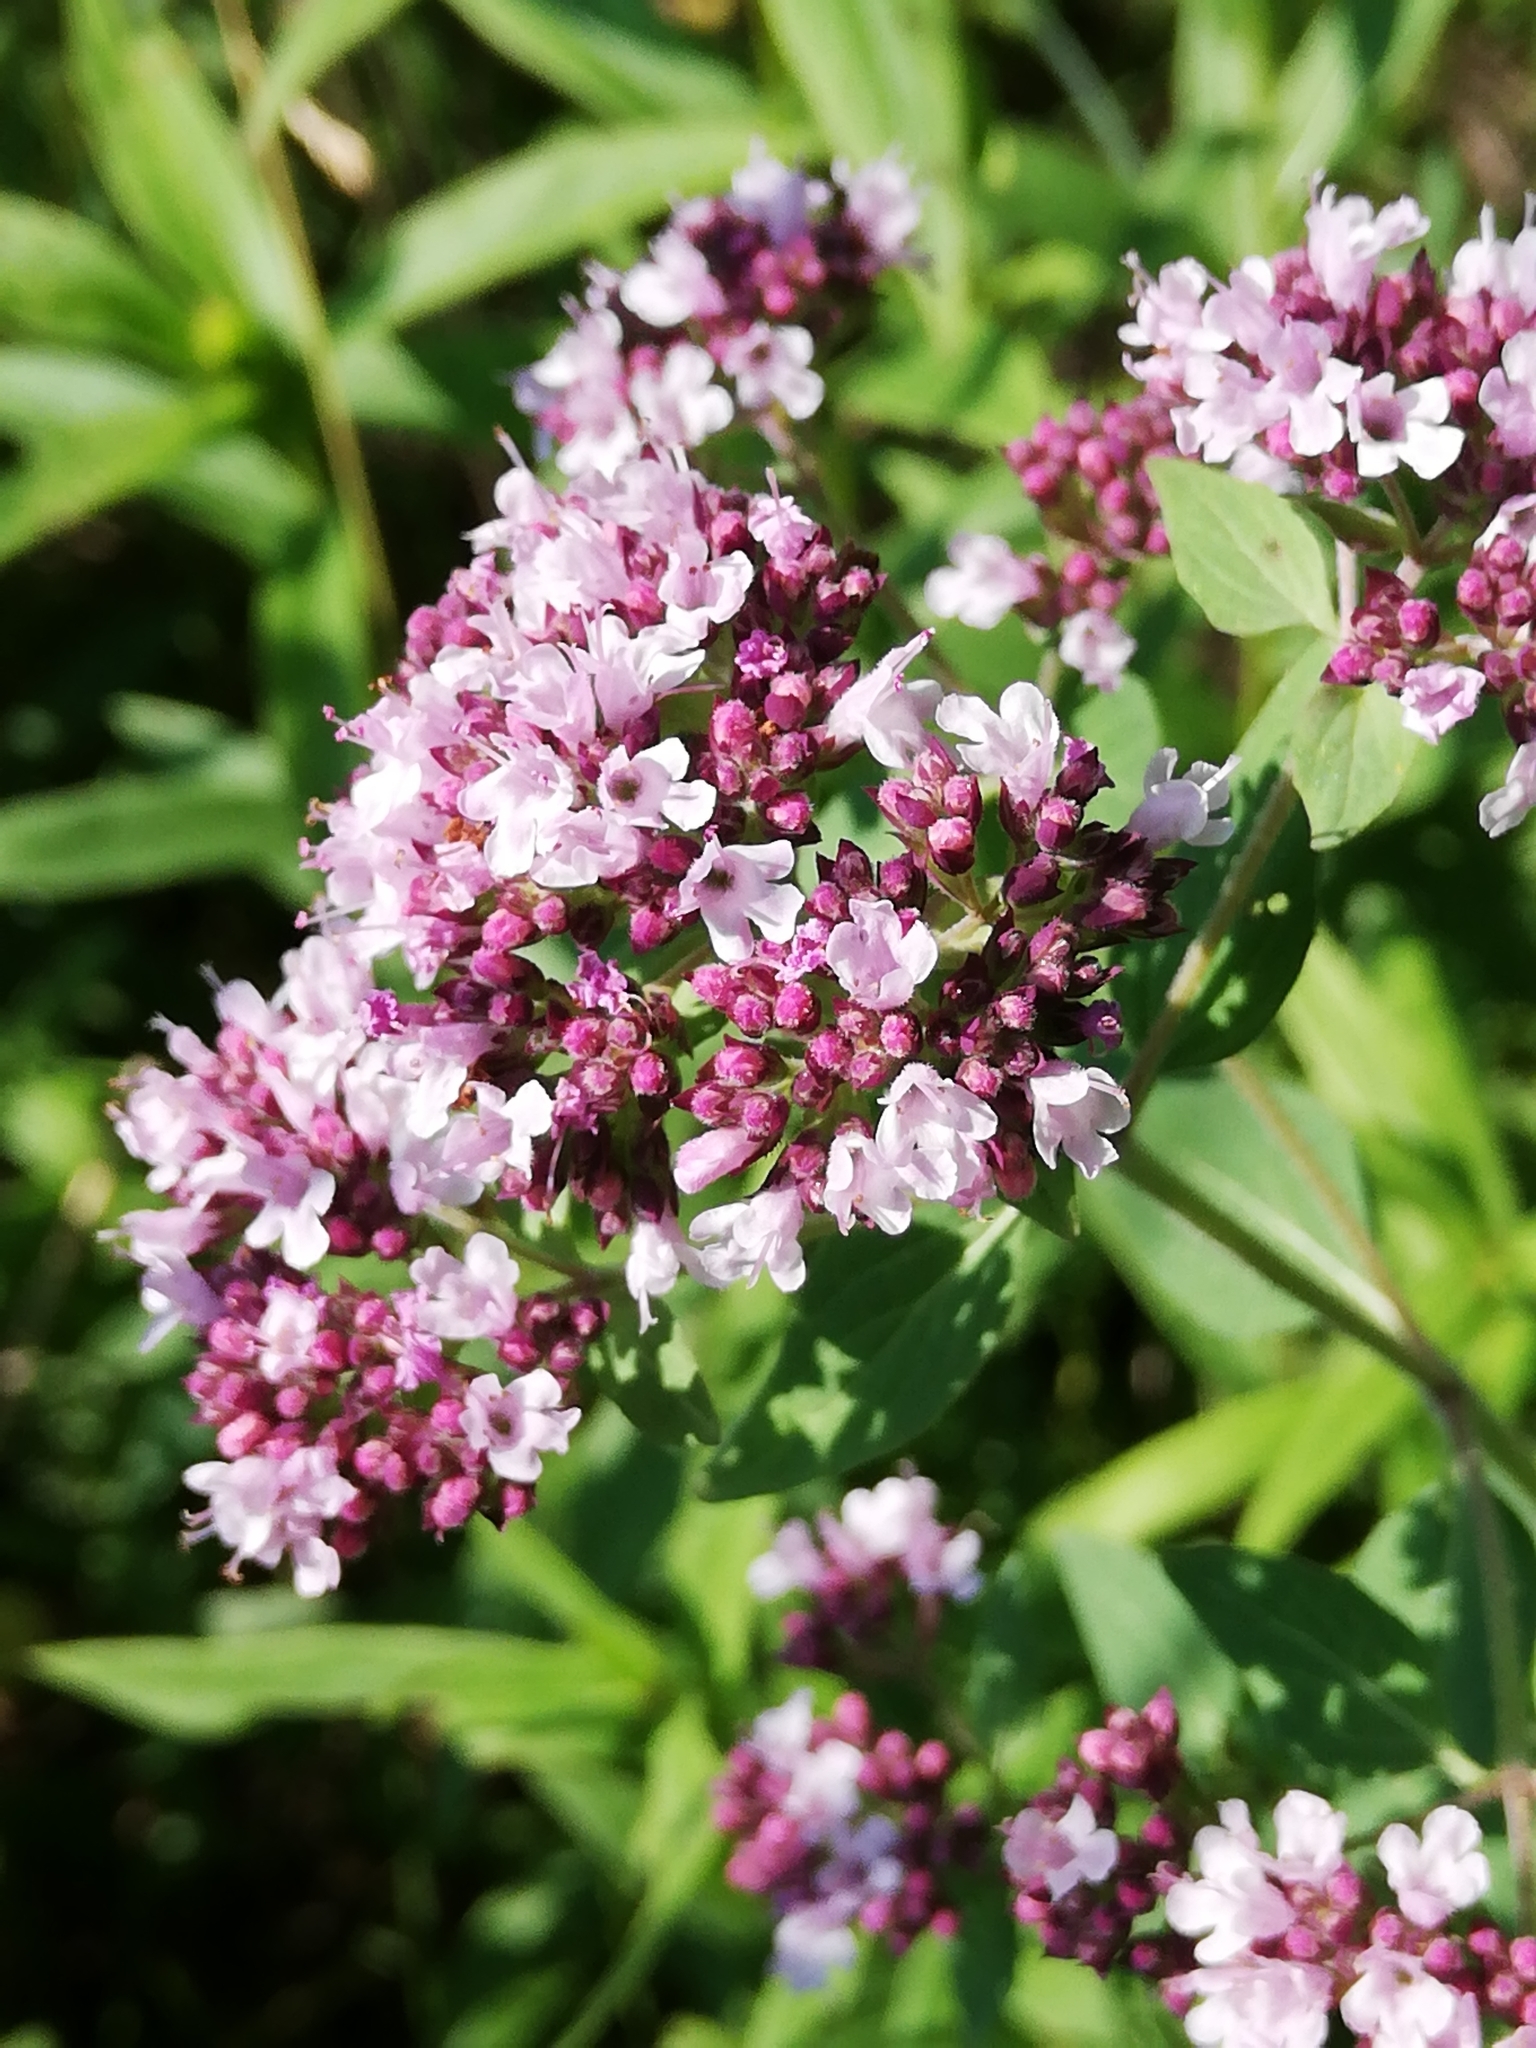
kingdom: Plantae
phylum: Tracheophyta
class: Magnoliopsida
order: Lamiales
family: Lamiaceae
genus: Origanum
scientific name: Origanum vulgare
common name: Wild marjoram
